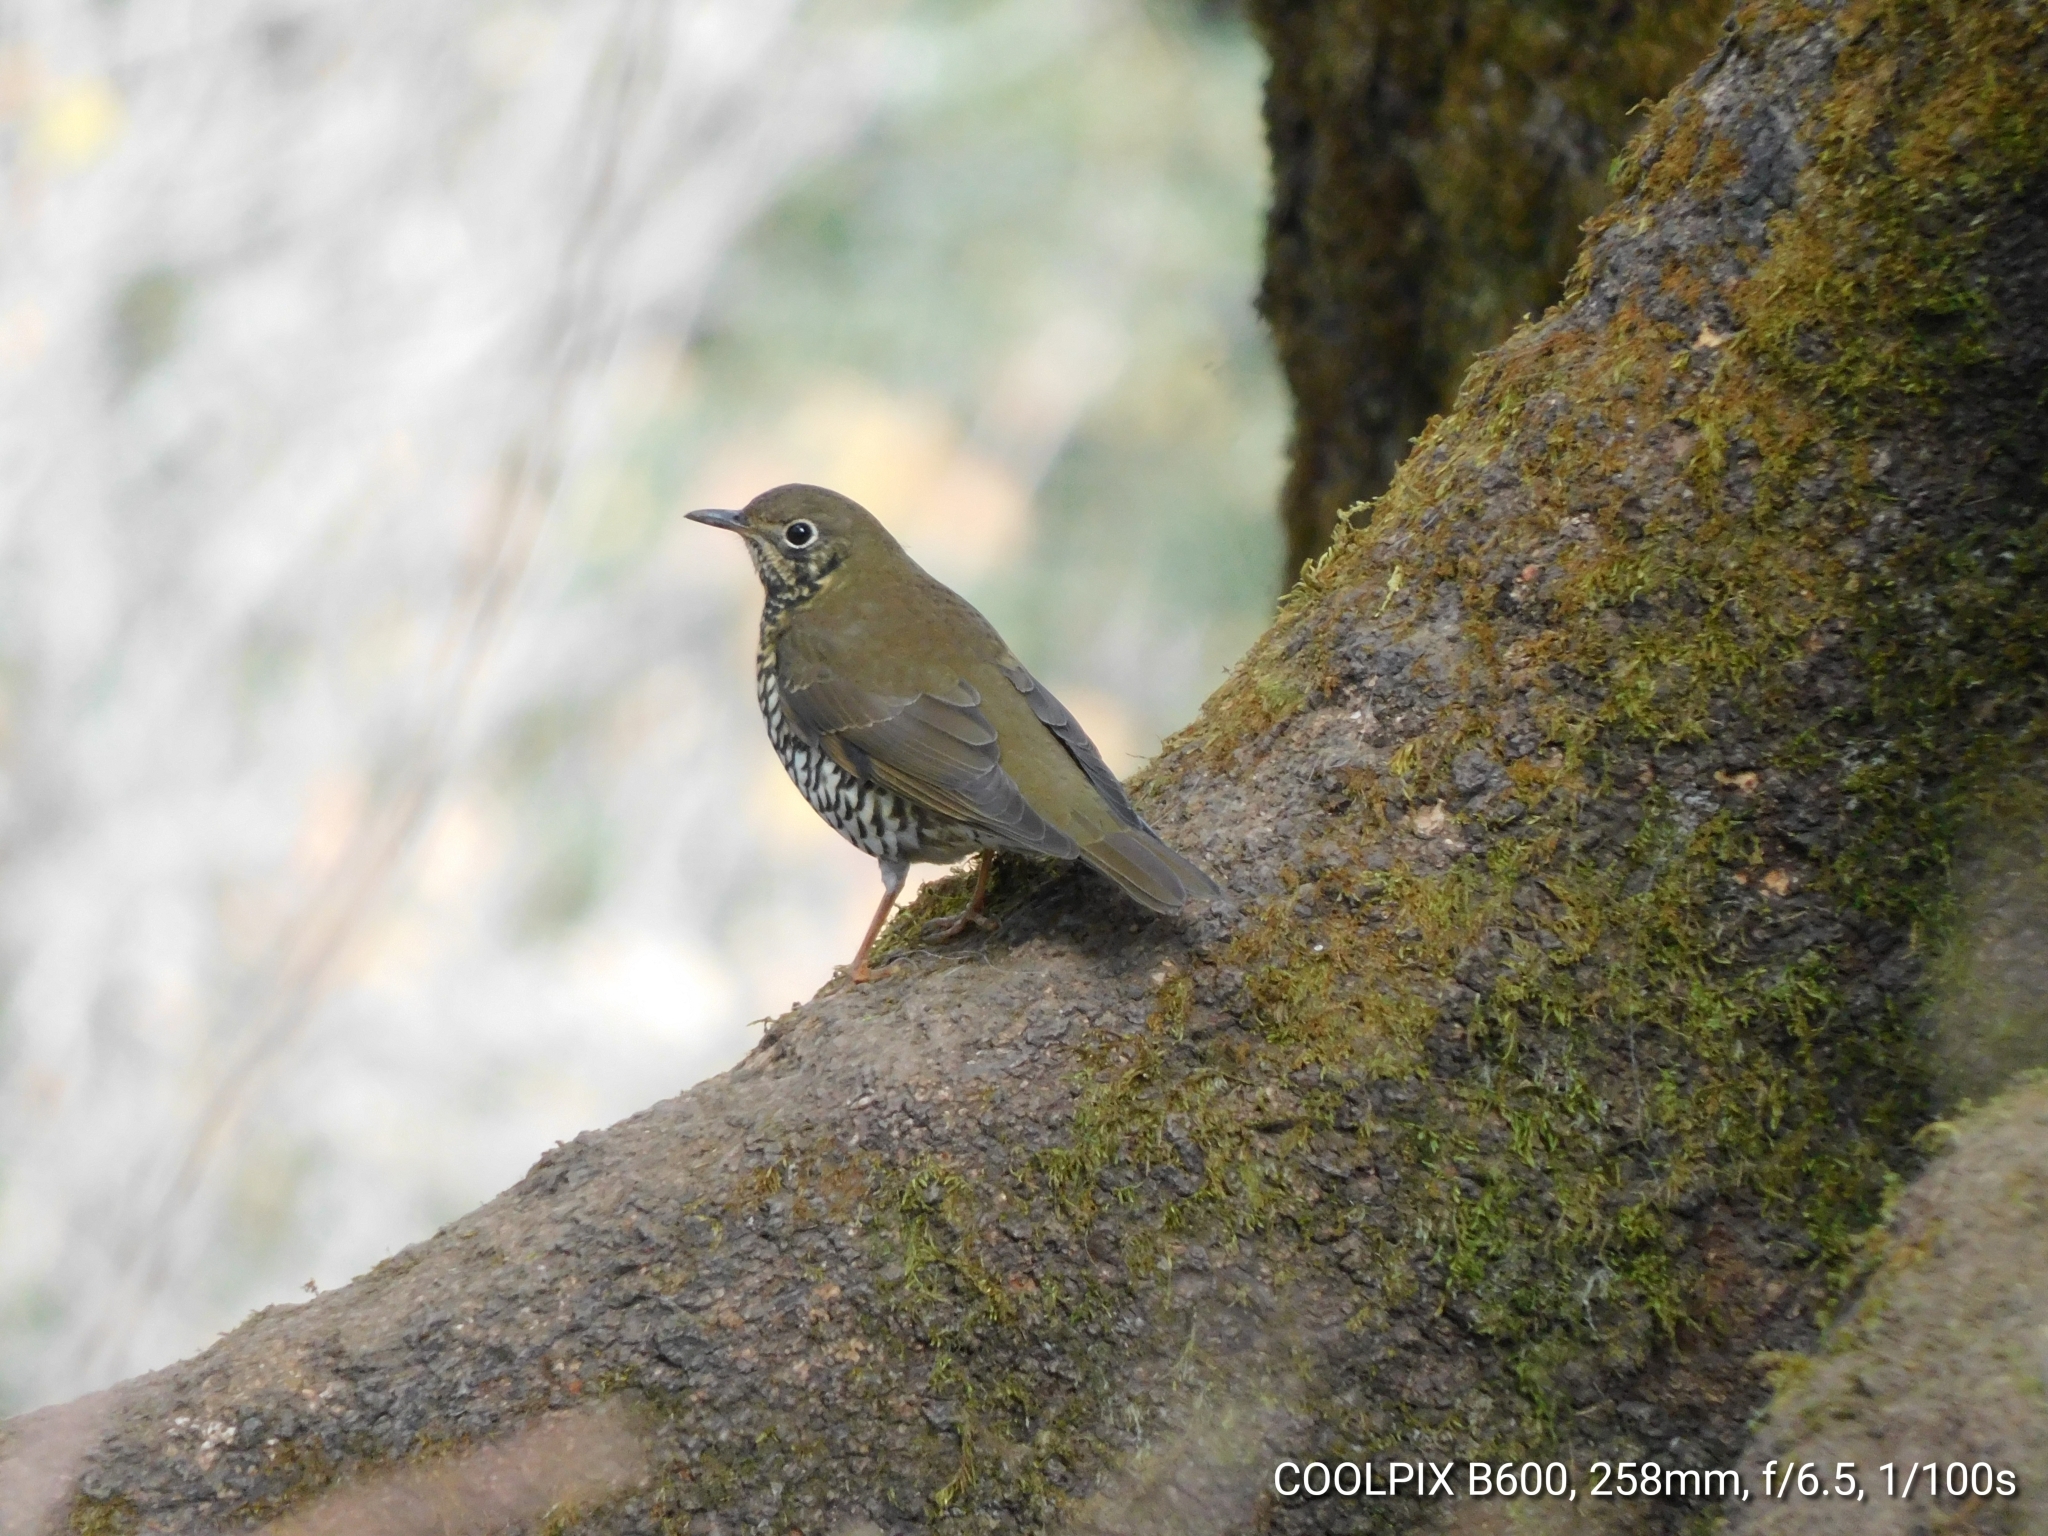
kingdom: Animalia
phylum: Chordata
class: Aves
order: Passeriformes
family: Turdidae
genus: Zoothera
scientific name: Zoothera mollissima
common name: Plain-backed thrush
